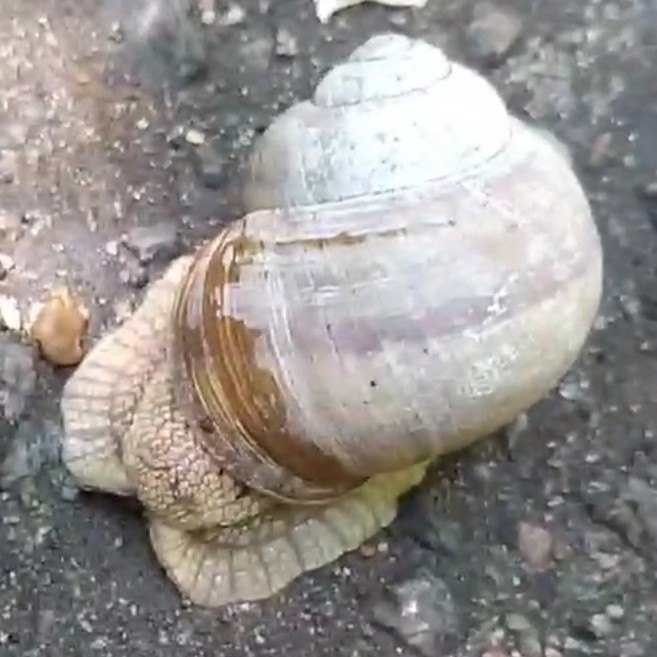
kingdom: Animalia
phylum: Mollusca
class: Gastropoda
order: Stylommatophora
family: Helicidae
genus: Helix
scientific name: Helix pomatia
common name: Roman snail
